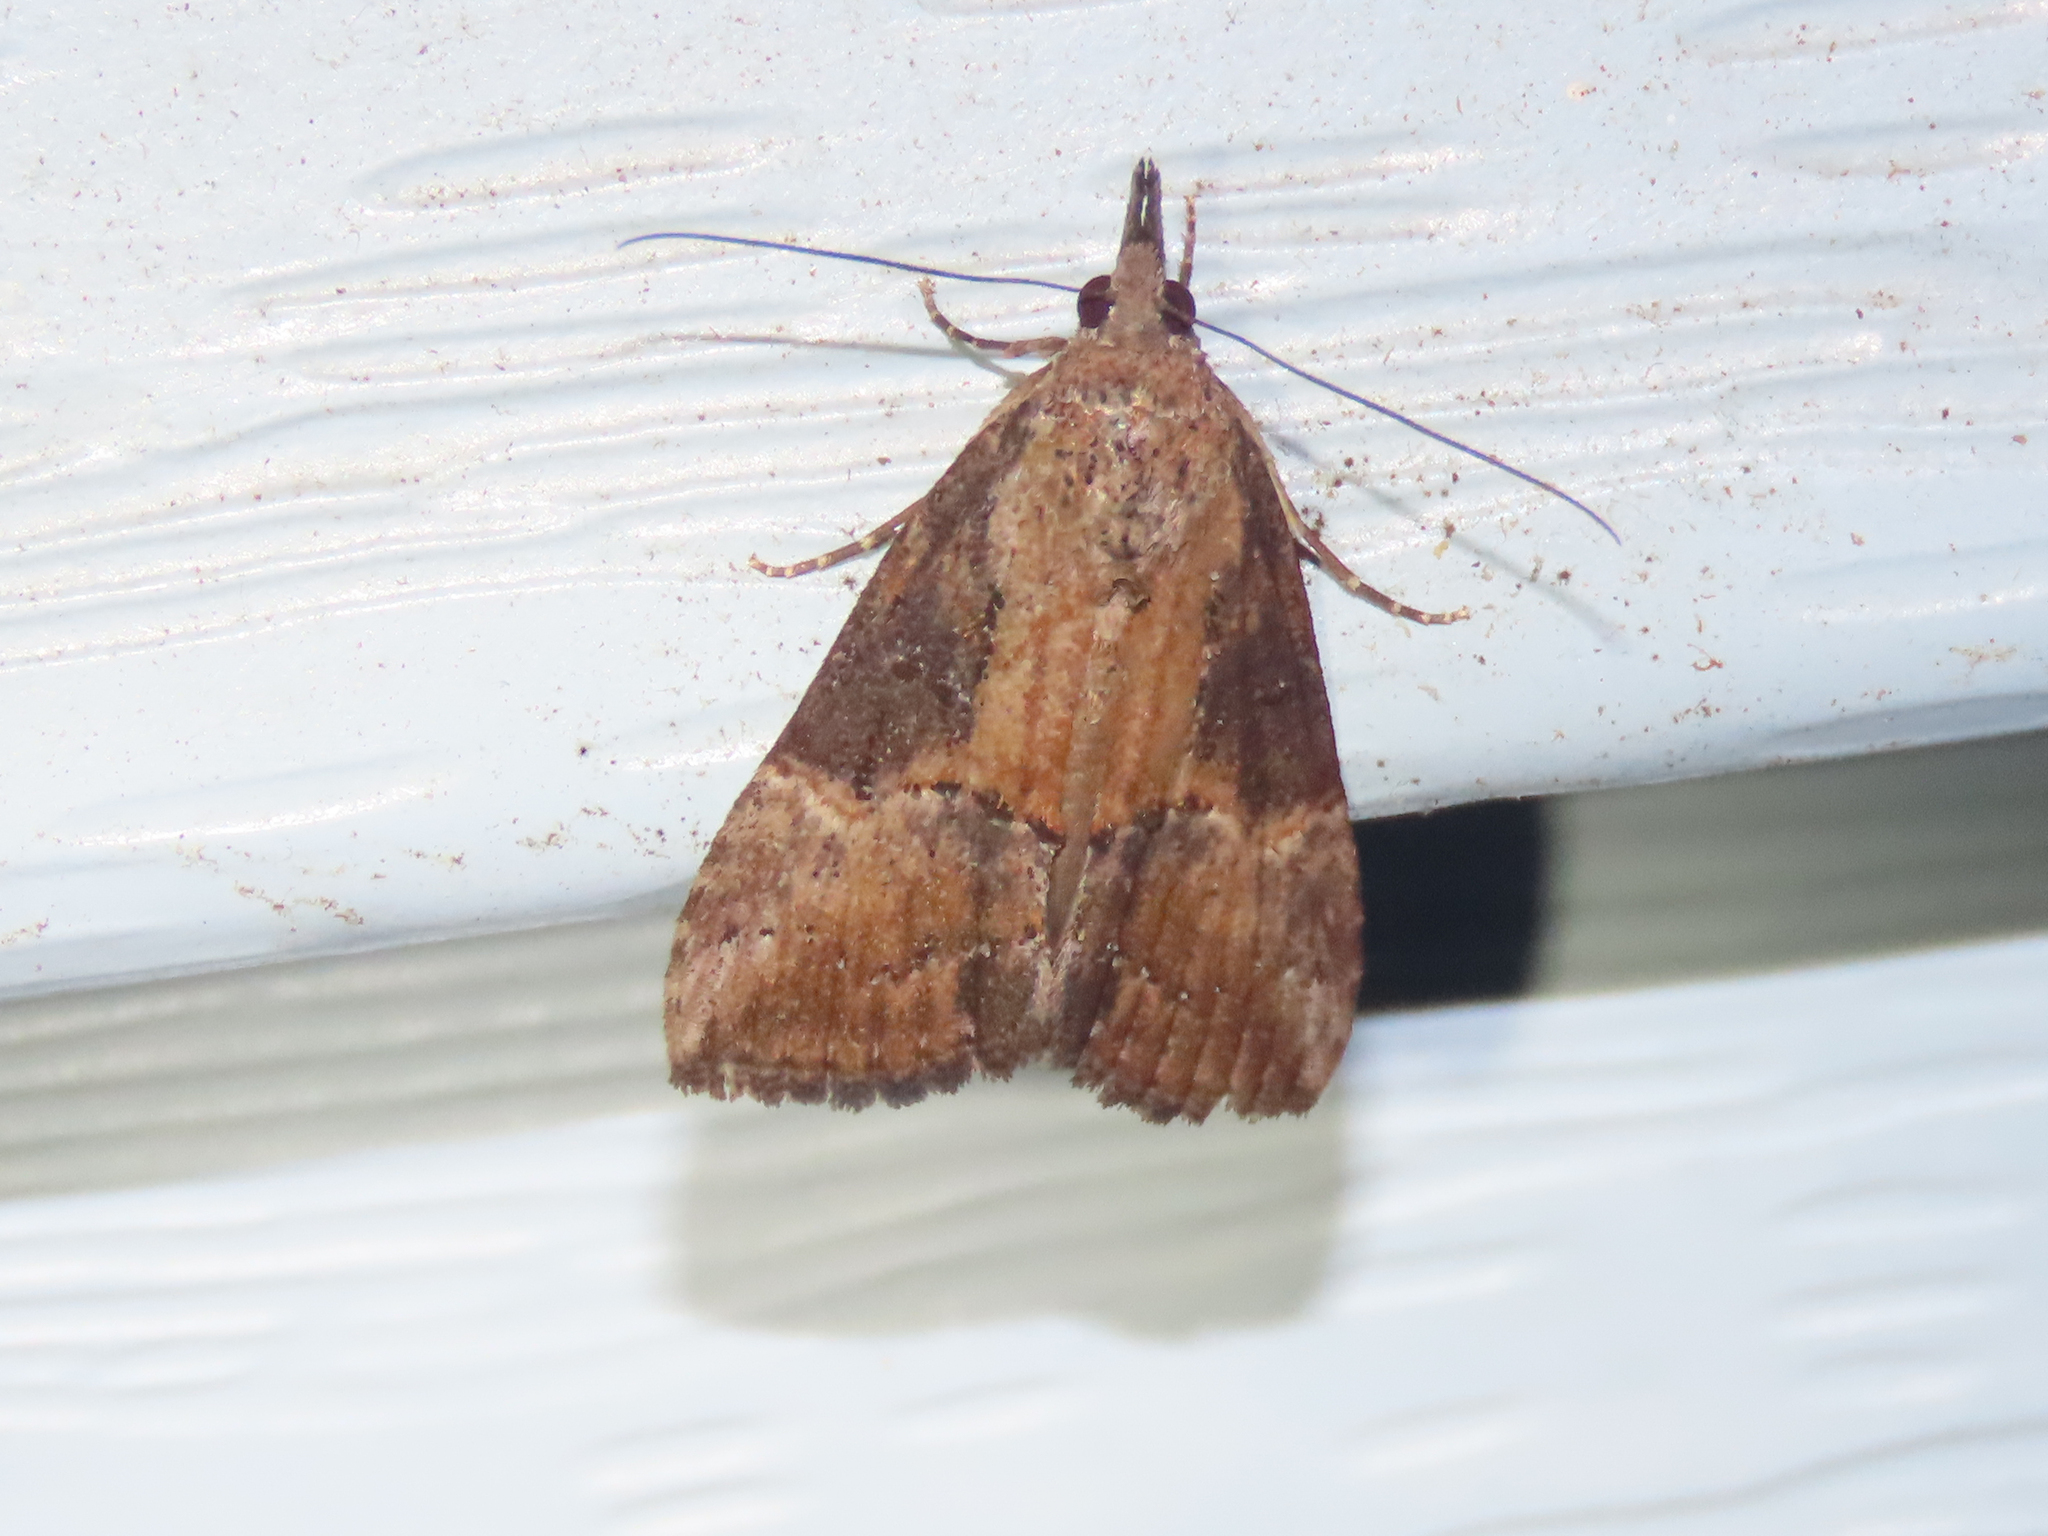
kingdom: Animalia
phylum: Arthropoda
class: Insecta
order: Lepidoptera
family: Erebidae
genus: Hypena
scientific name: Hypena scabra
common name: Green cloverworm
